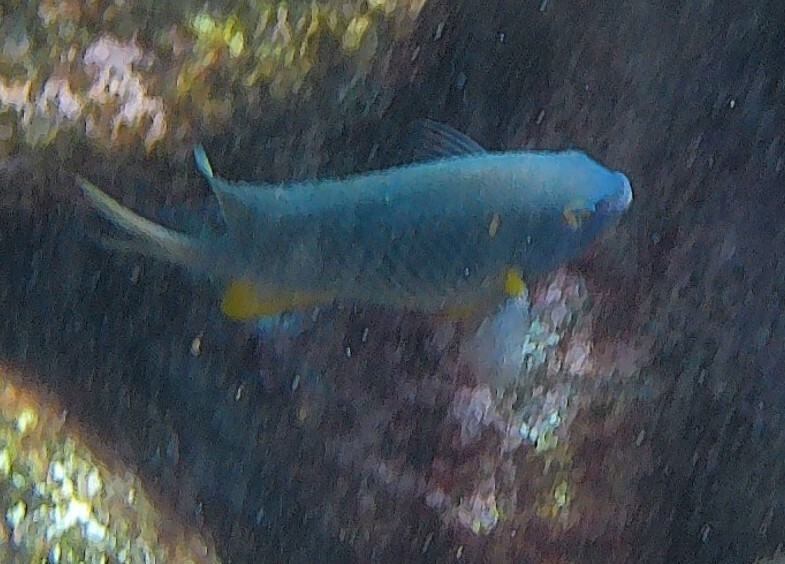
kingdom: Animalia
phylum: Chordata
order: Perciformes
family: Pomacentridae
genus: Stegastes
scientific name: Stegastes gascoynei
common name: Coral sea gregory
